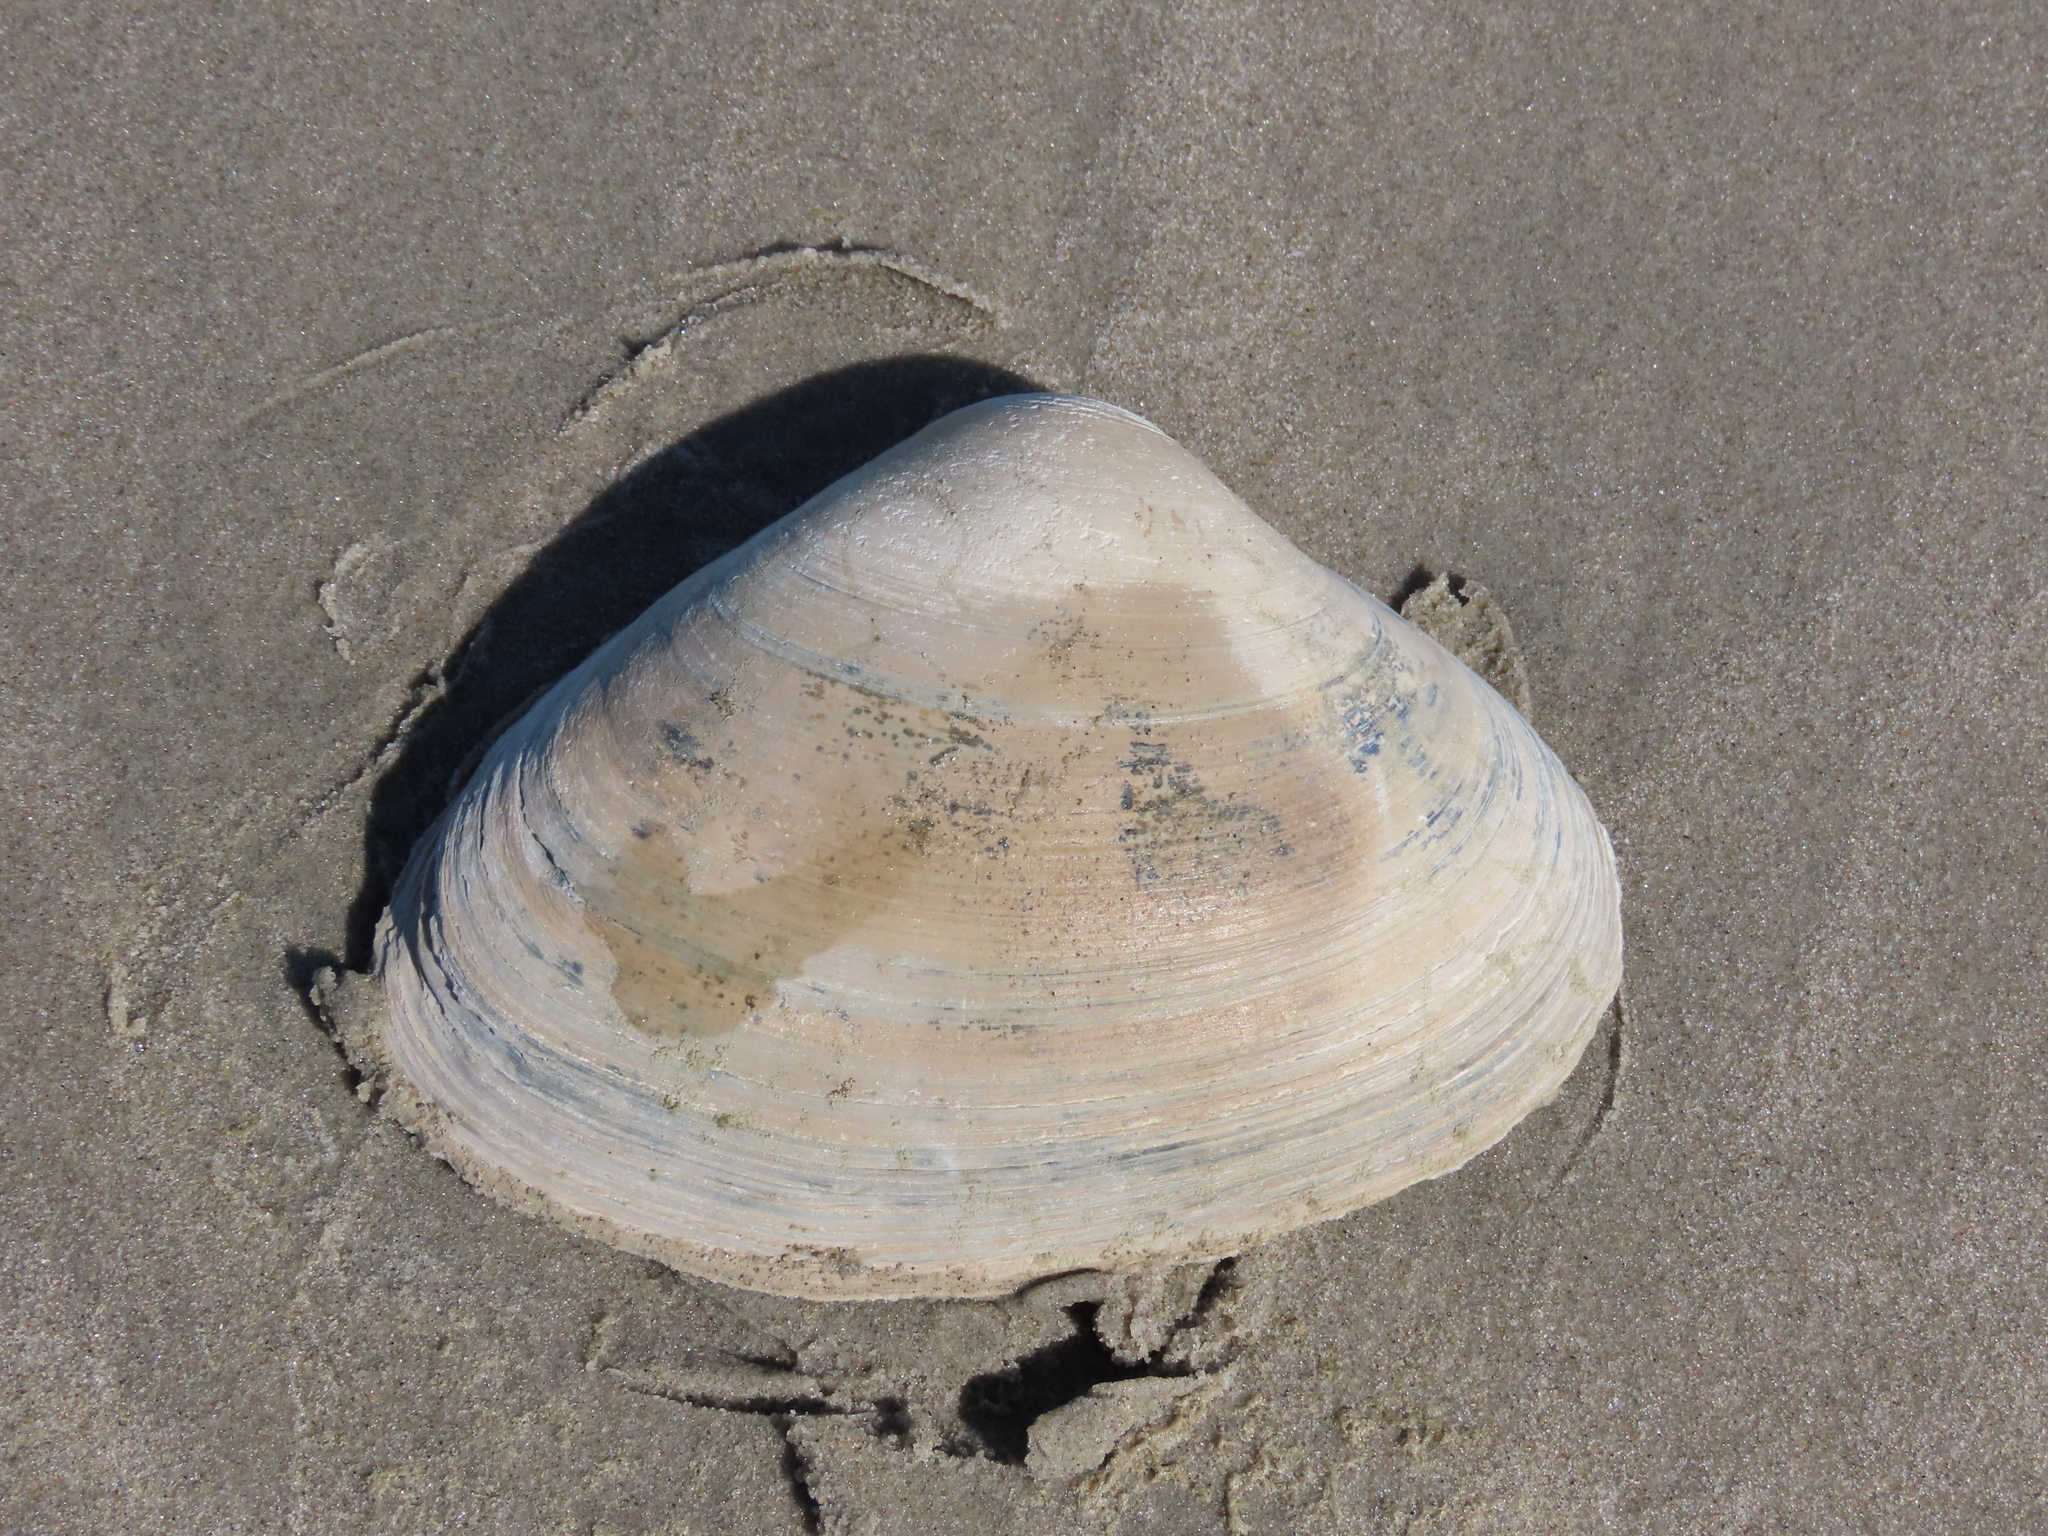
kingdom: Animalia
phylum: Mollusca
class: Bivalvia
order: Venerida
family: Mactridae
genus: Spisula
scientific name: Spisula solidissima
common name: Atlantic surf clam
